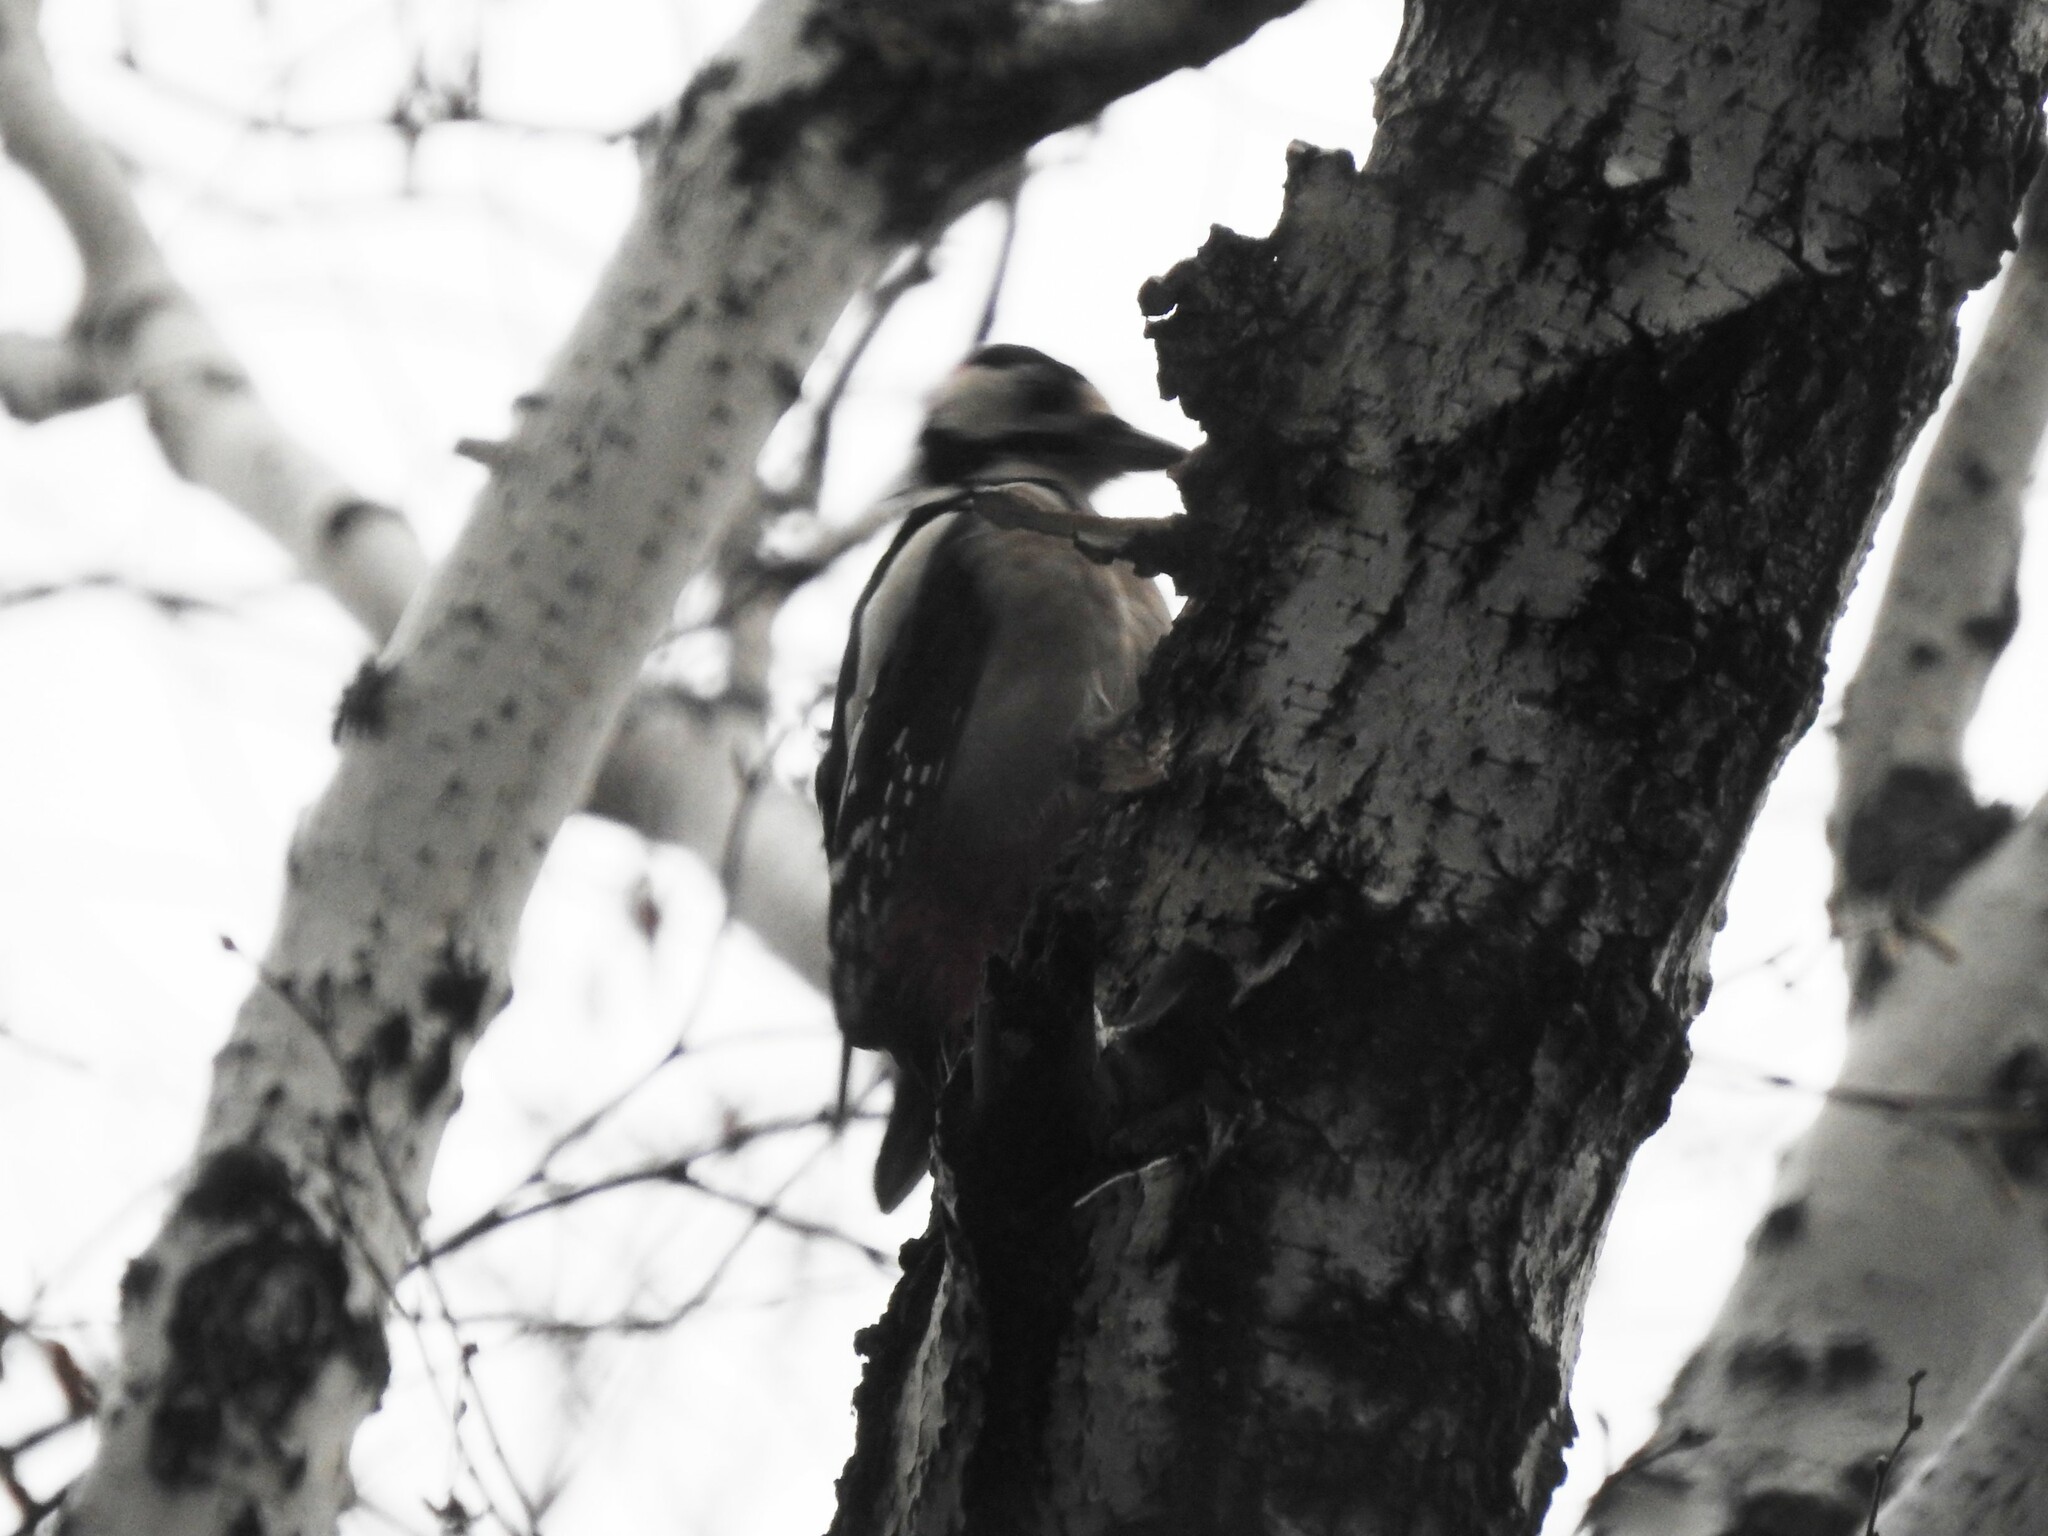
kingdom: Animalia
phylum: Chordata
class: Aves
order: Piciformes
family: Picidae
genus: Dendrocopos
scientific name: Dendrocopos major
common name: Great spotted woodpecker
